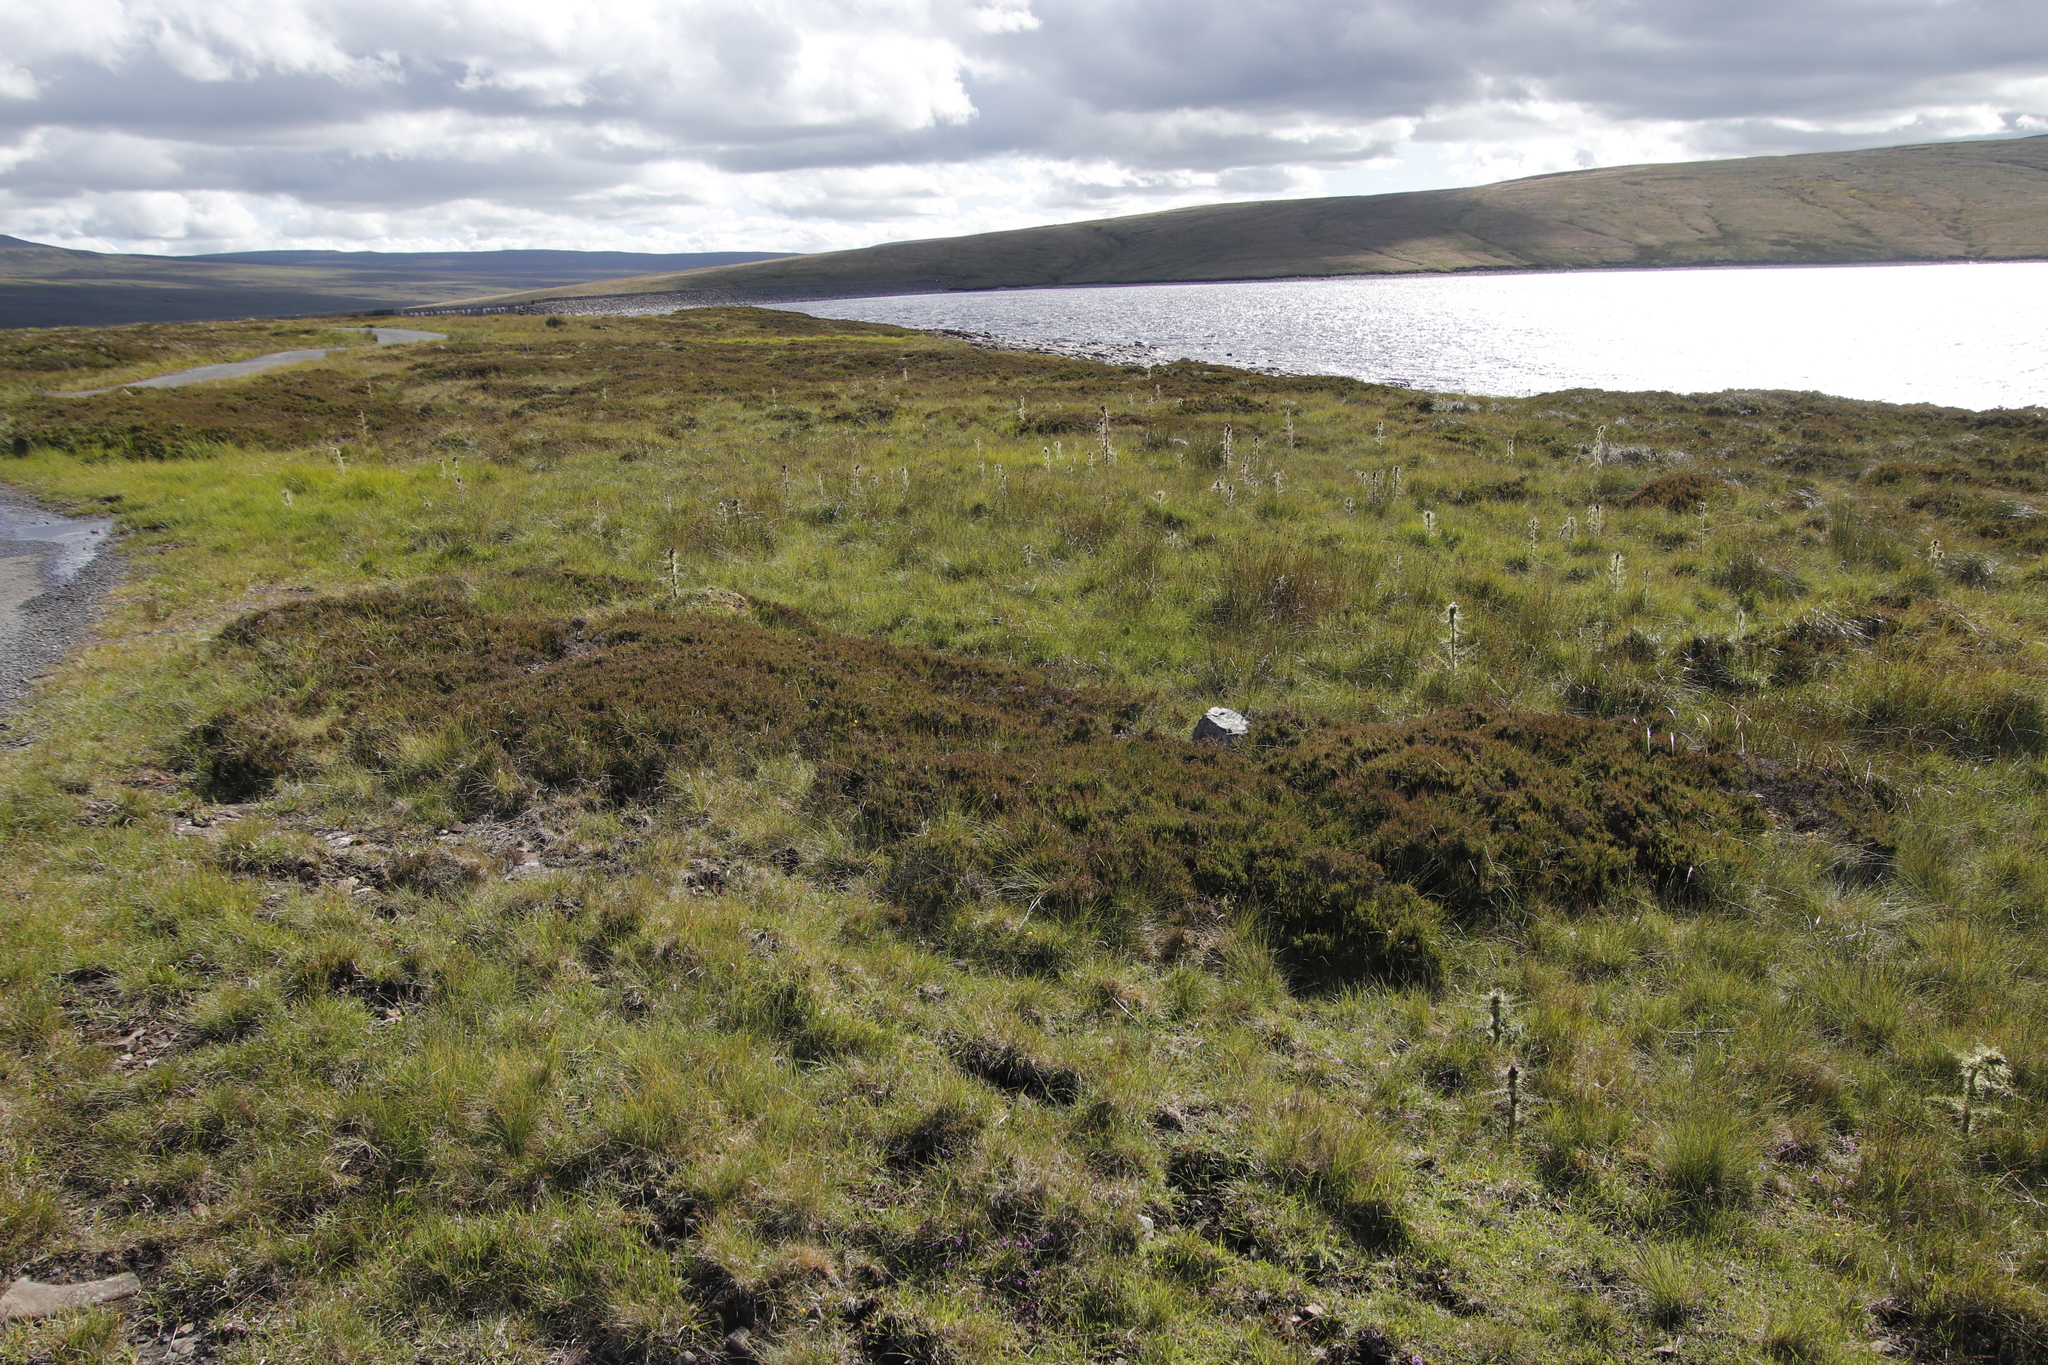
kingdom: Plantae
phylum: Tracheophyta
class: Magnoliopsida
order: Ericales
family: Ericaceae
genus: Calluna
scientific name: Calluna vulgaris
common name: Heather
